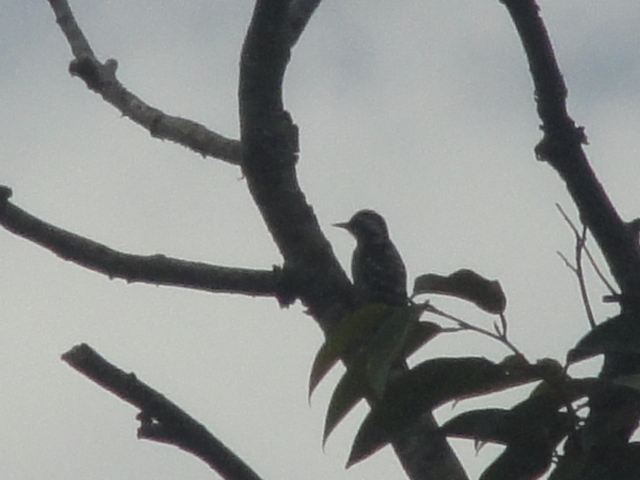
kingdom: Animalia
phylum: Chordata
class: Aves
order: Piciformes
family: Picidae
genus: Yungipicus
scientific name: Yungipicus canicapillus
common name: Grey-capped pygmy woodpecker
